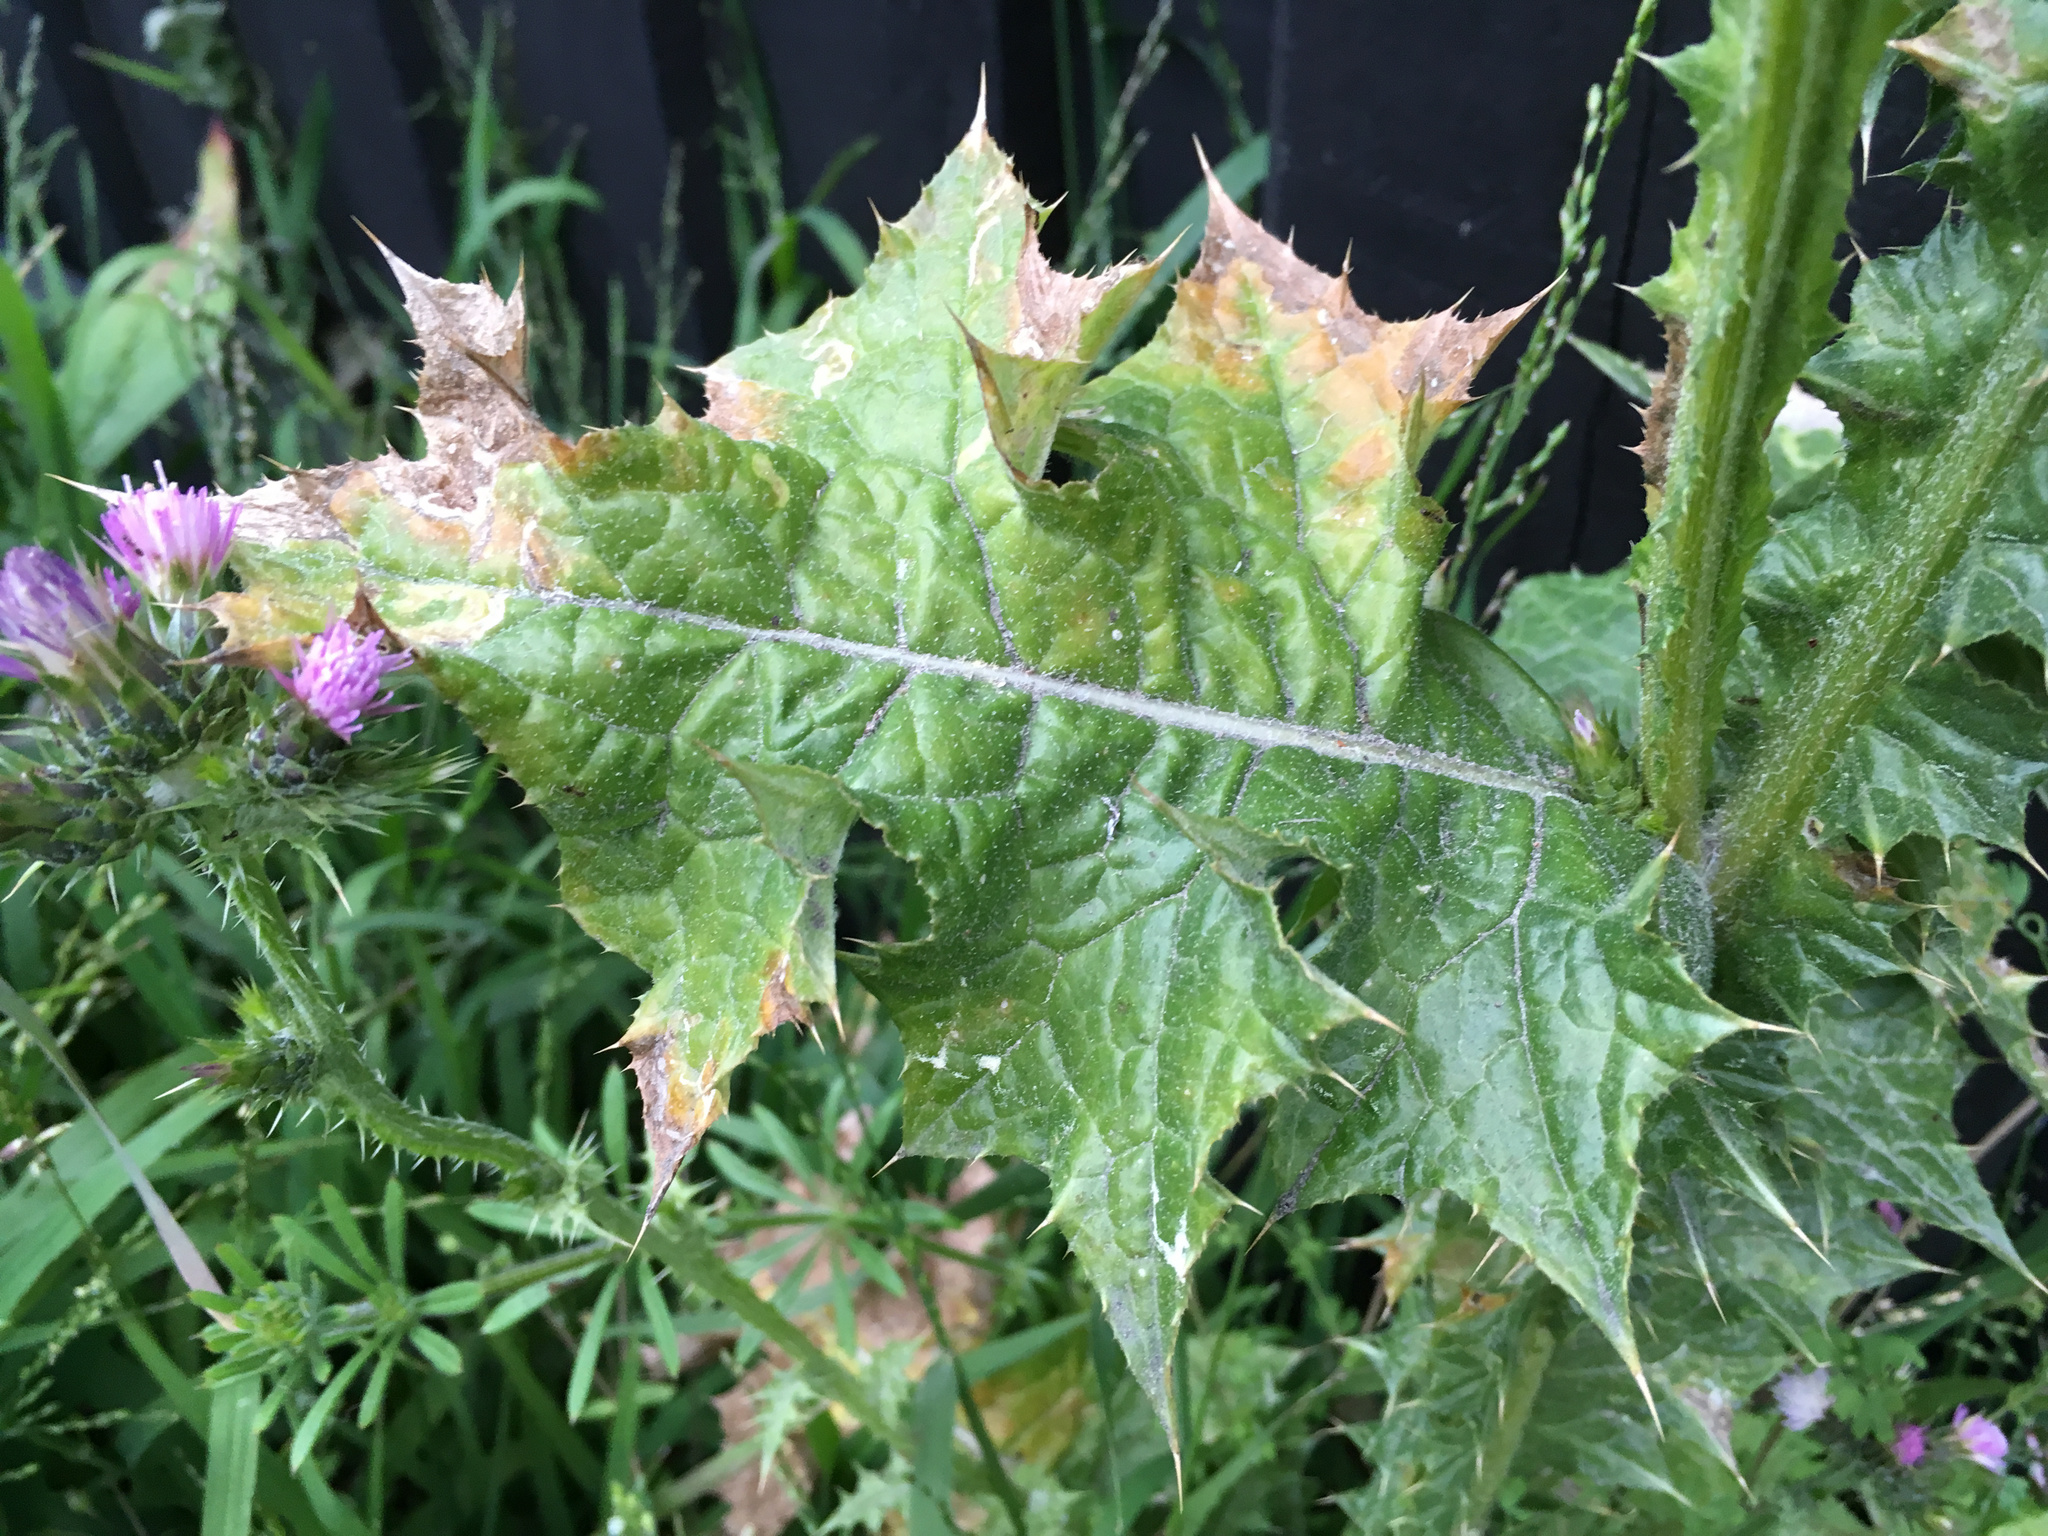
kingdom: Plantae
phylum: Tracheophyta
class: Magnoliopsida
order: Asterales
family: Asteraceae
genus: Carduus
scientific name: Carduus tenuiflorus
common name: Slender thistle
